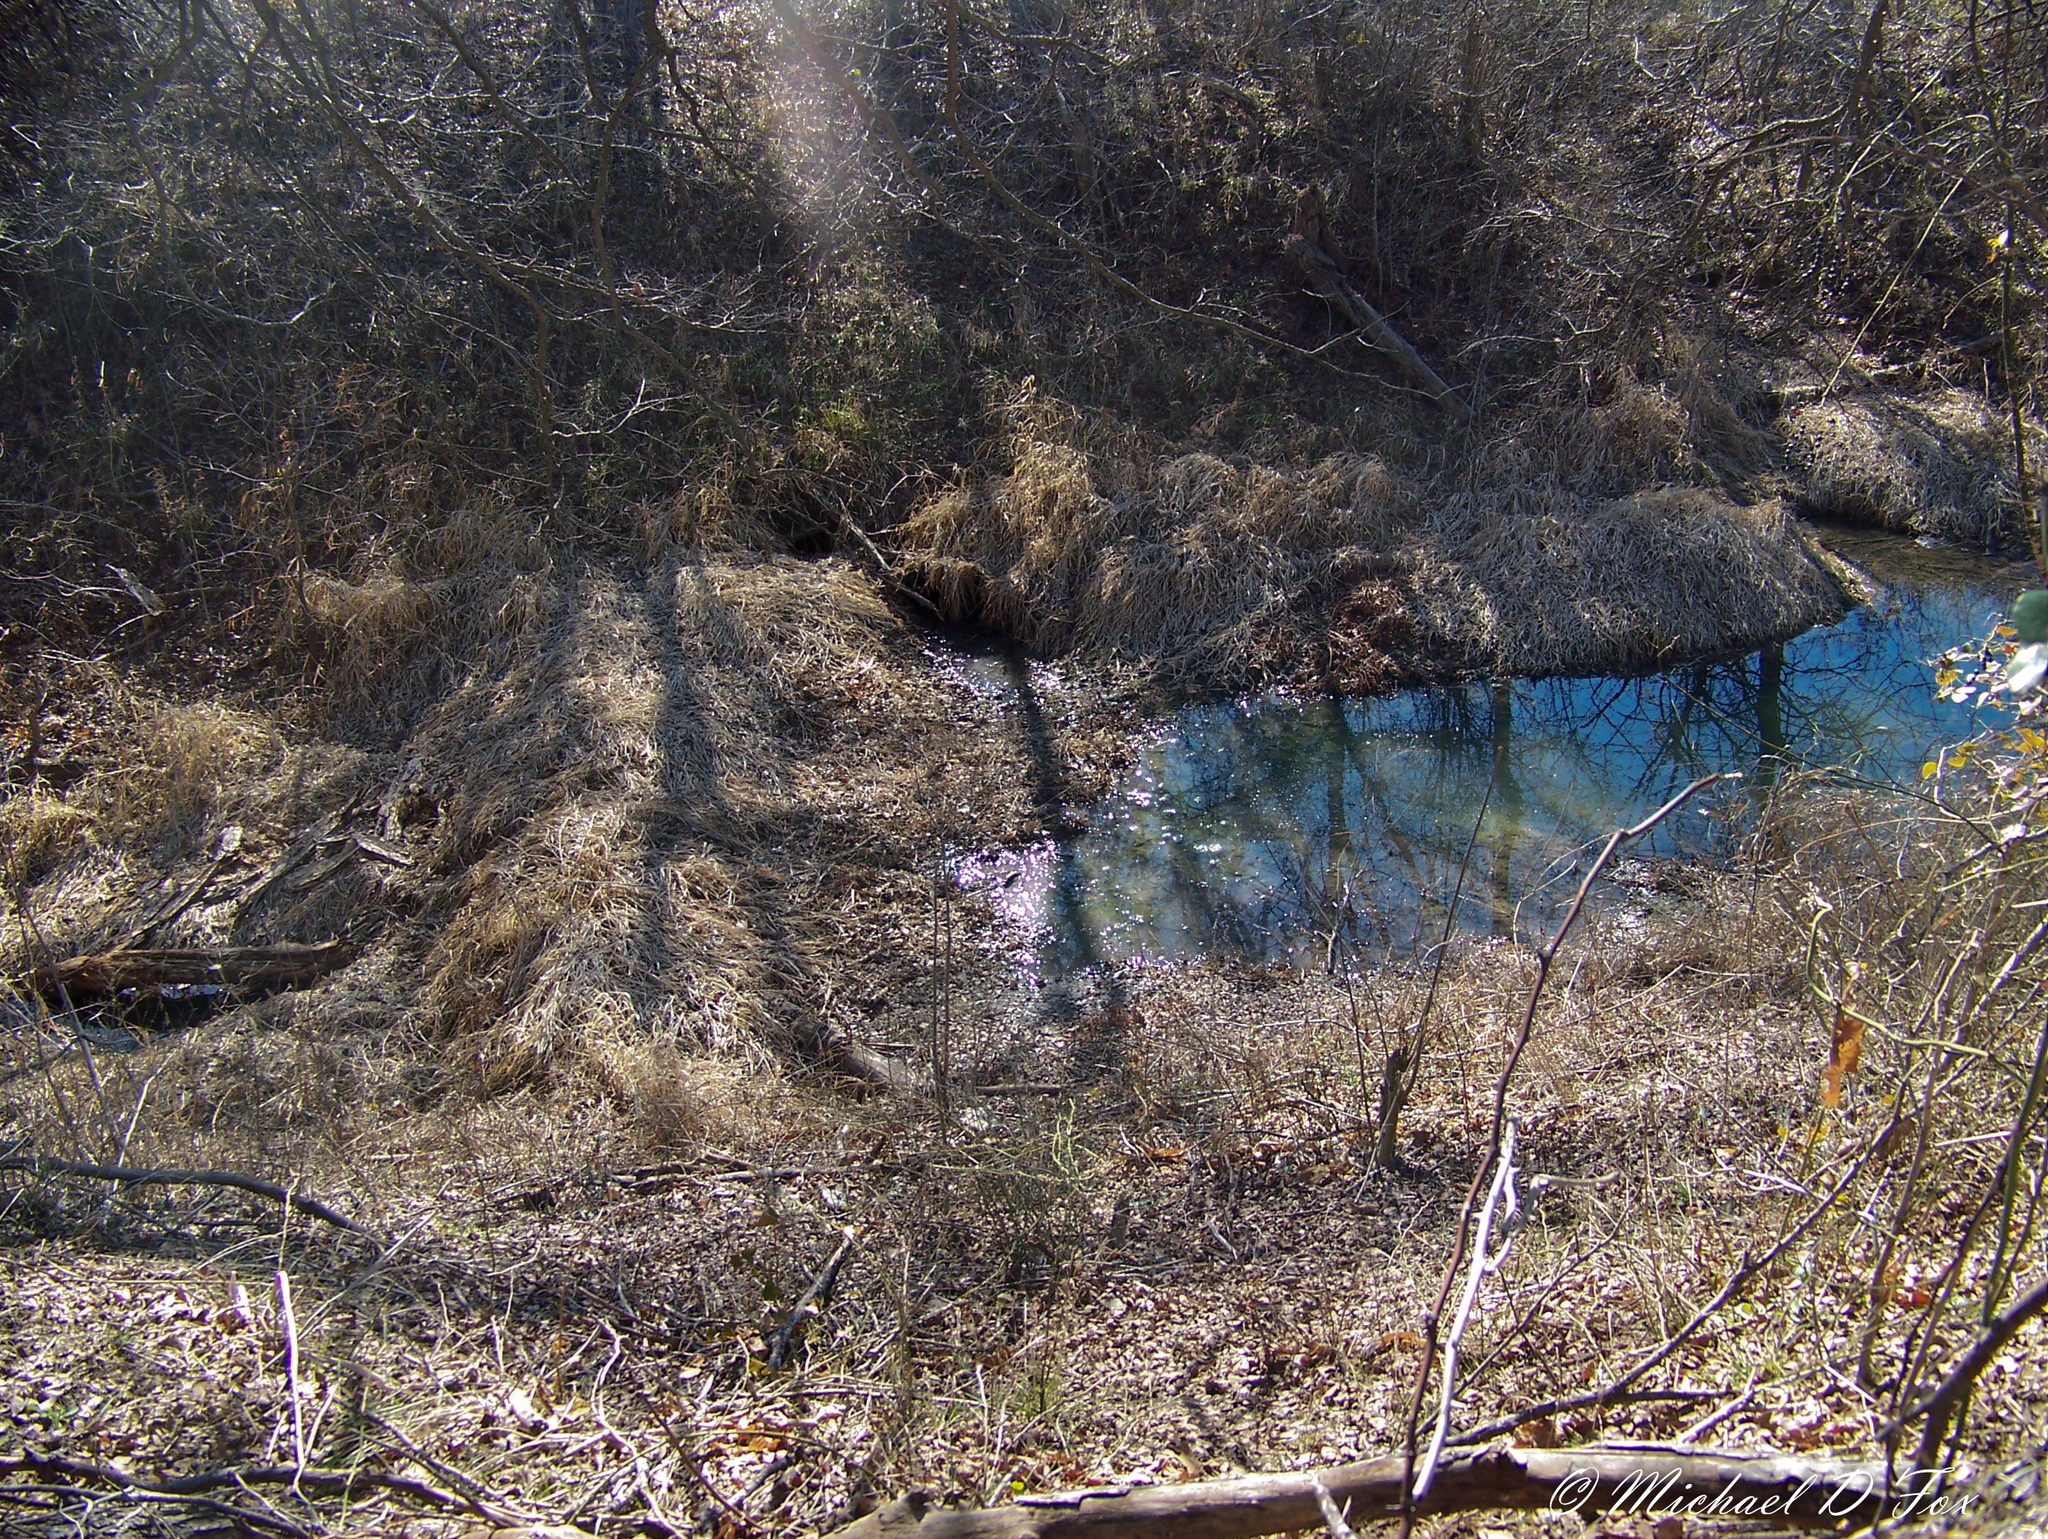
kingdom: Animalia
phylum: Chordata
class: Mammalia
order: Rodentia
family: Castoridae
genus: Castor
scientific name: Castor canadensis
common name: American beaver
